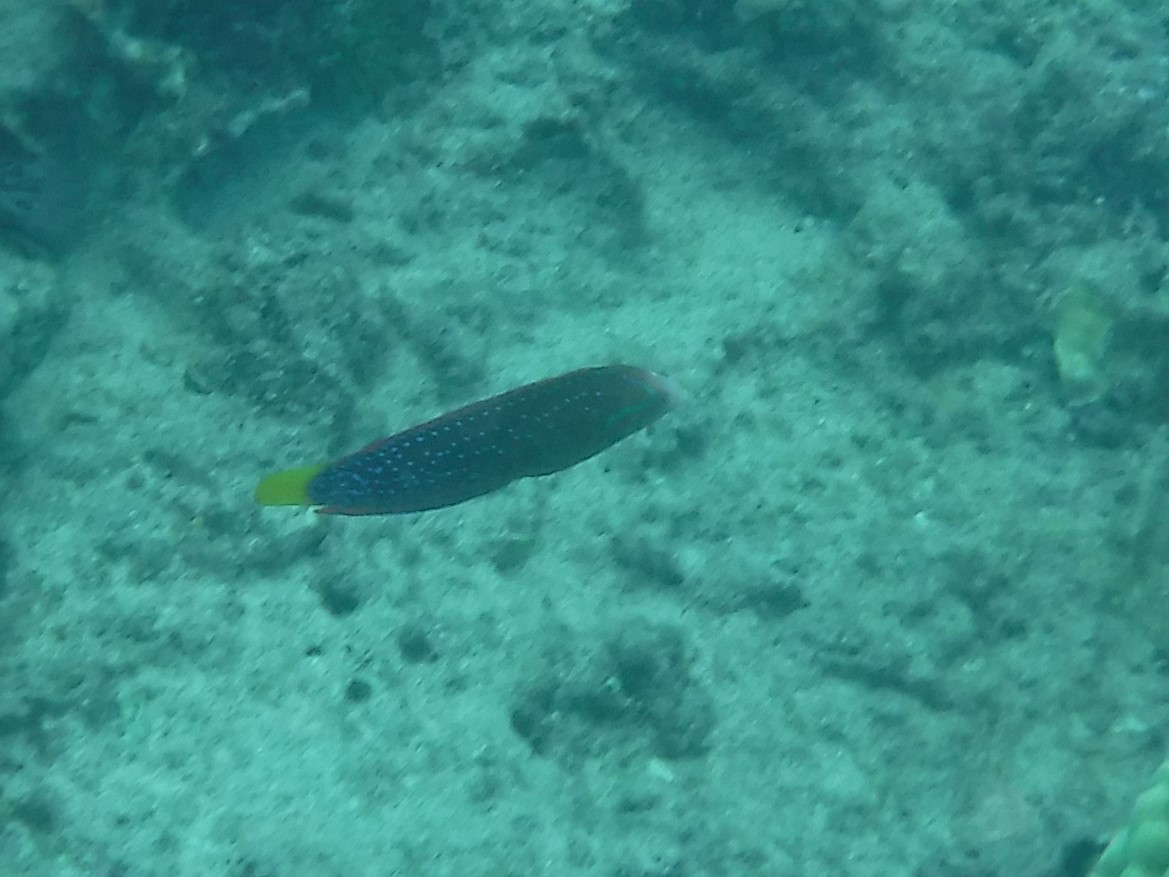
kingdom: Animalia
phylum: Chordata
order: Perciformes
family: Labridae
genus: Coris
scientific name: Coris gaimard
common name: Yellowtail coris
